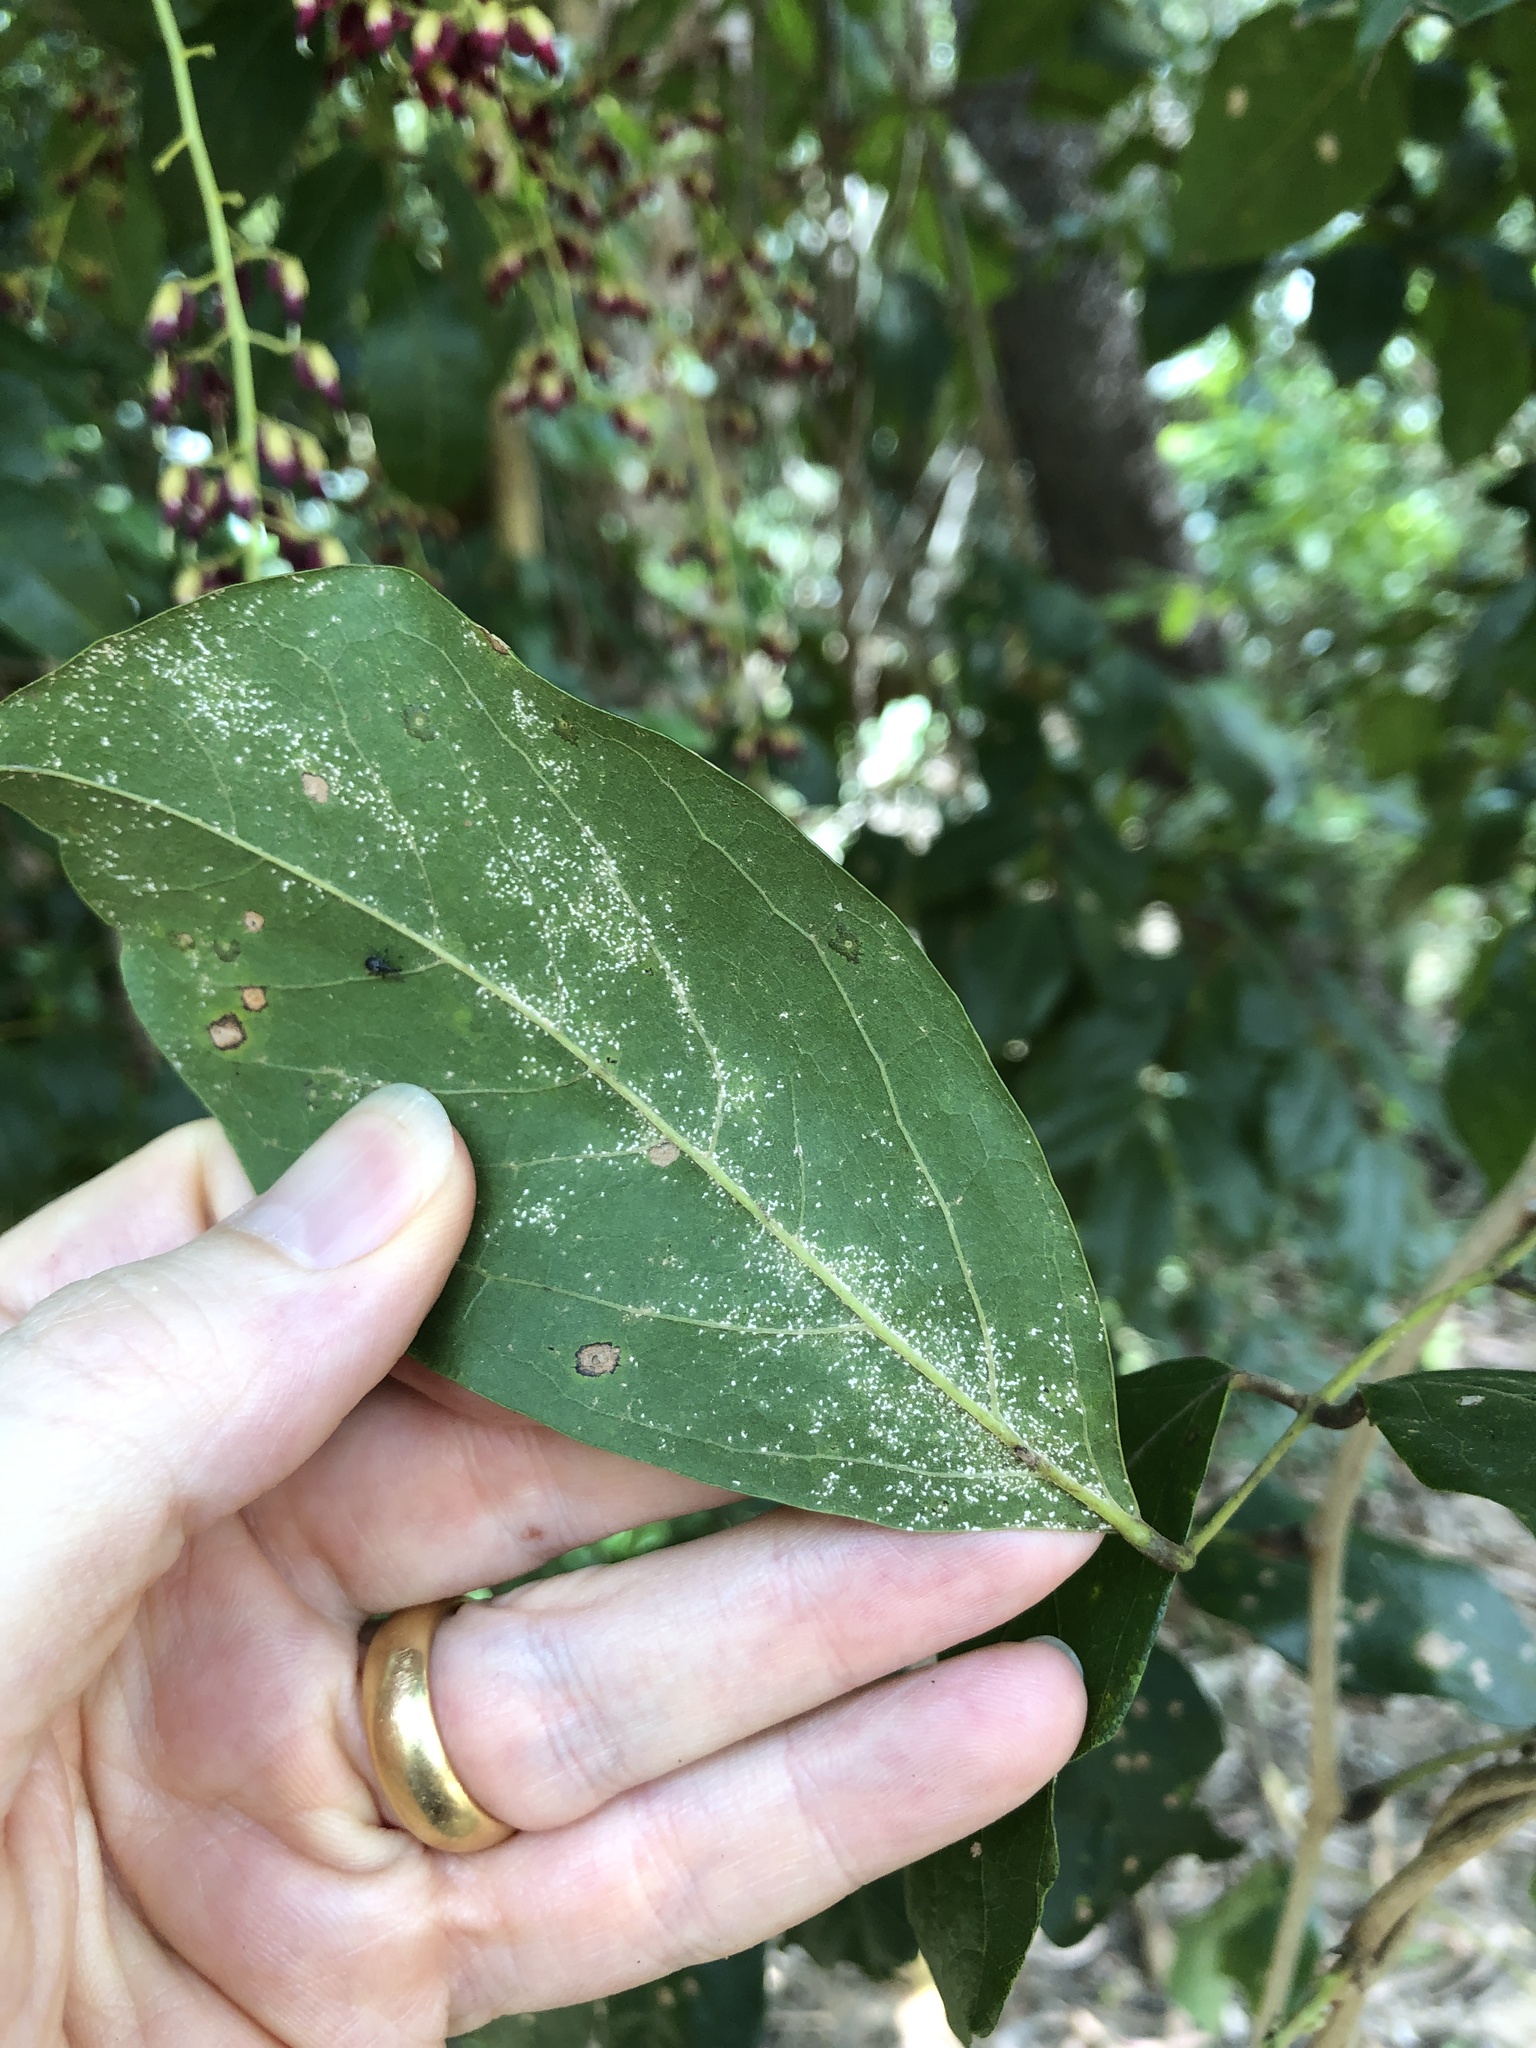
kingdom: Plantae
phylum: Tracheophyta
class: Magnoliopsida
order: Fabales
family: Fabaceae
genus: Austrosteenisia
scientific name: Austrosteenisia blackii
